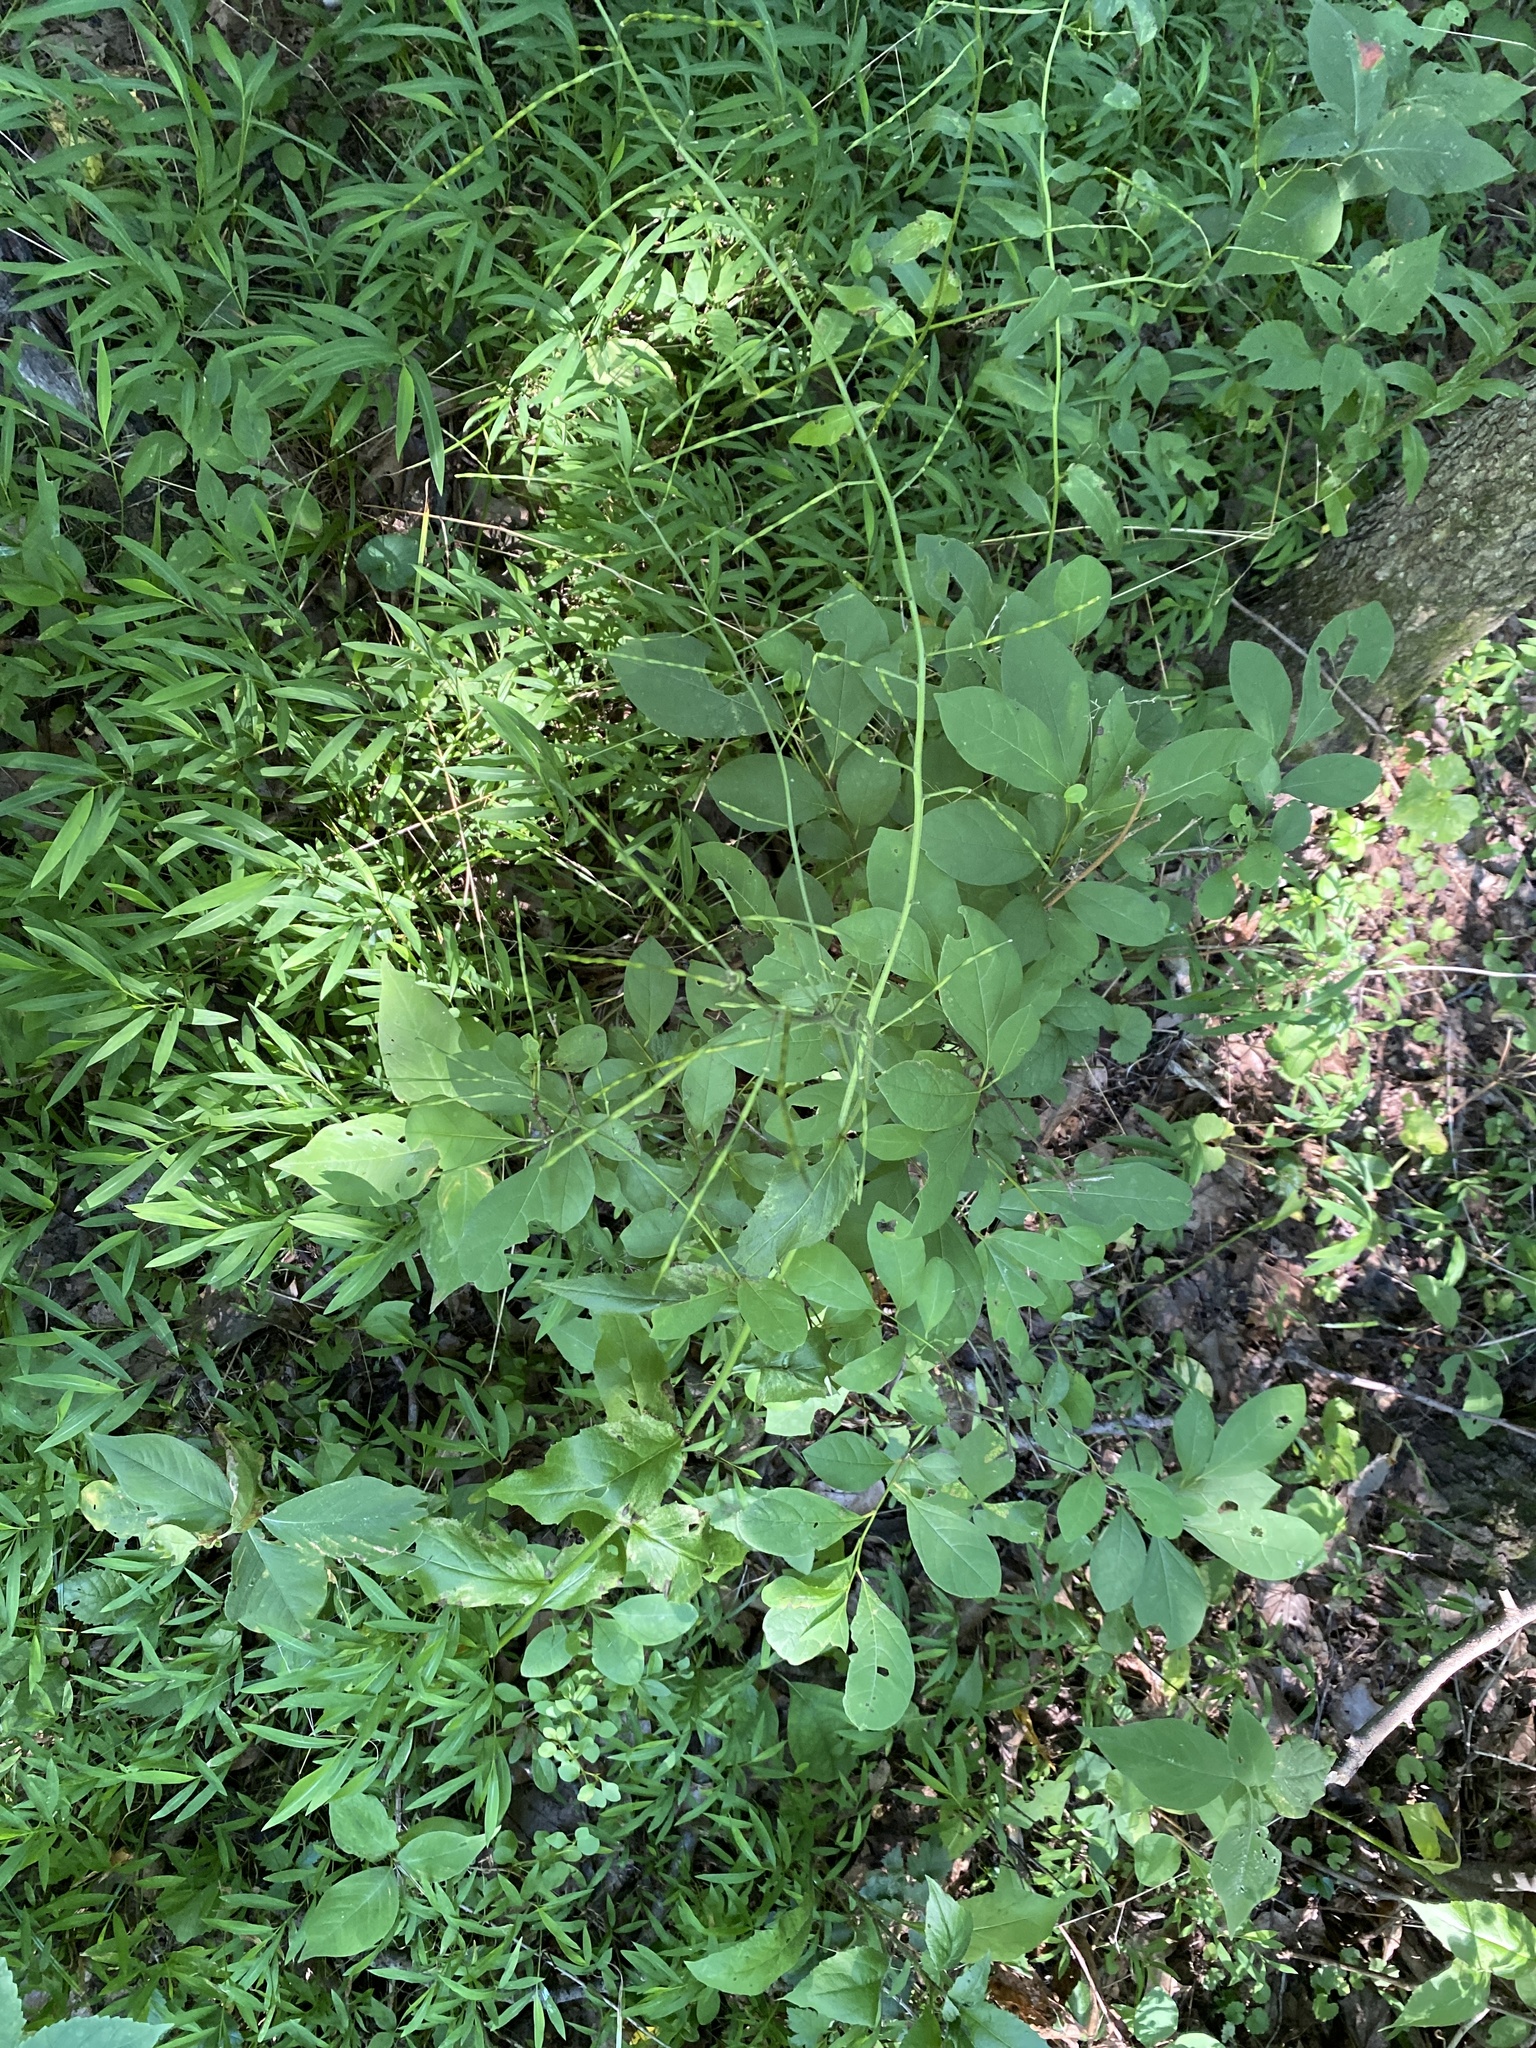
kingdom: Plantae
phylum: Tracheophyta
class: Magnoliopsida
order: Brassicales
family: Brassicaceae
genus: Hesperis
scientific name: Hesperis matronalis
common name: Dame's-violet
